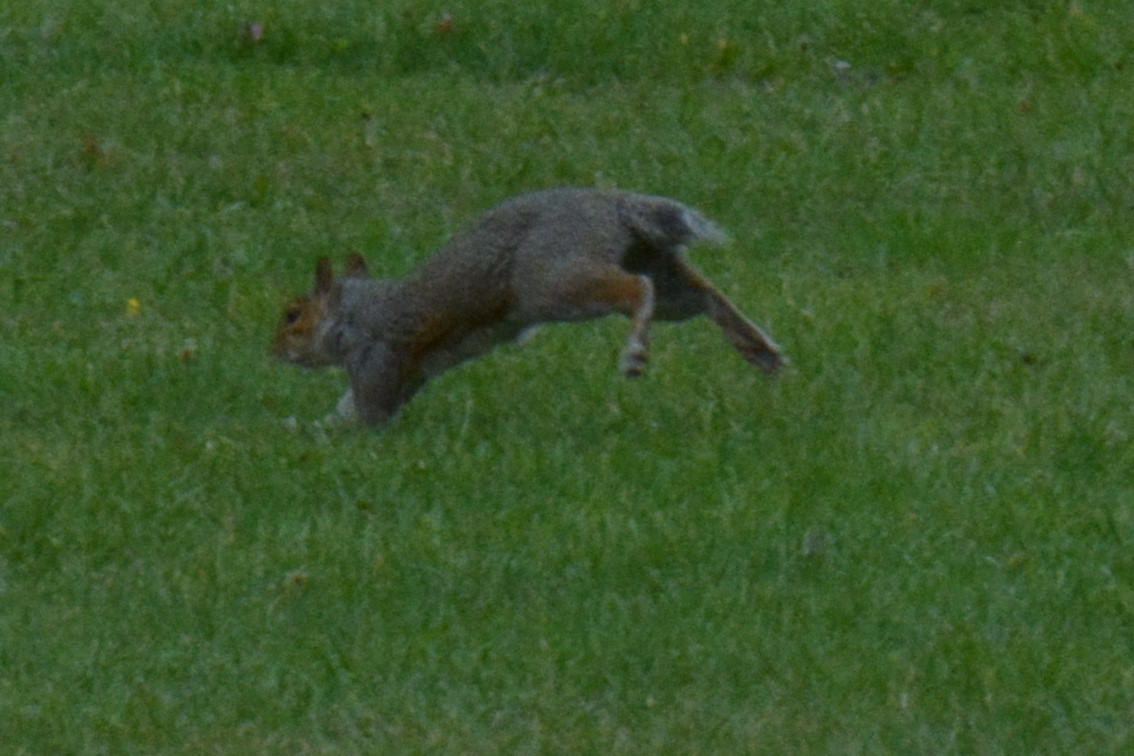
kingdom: Animalia
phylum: Chordata
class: Mammalia
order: Rodentia
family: Sciuridae
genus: Sciurus
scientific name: Sciurus carolinensis
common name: Eastern gray squirrel
